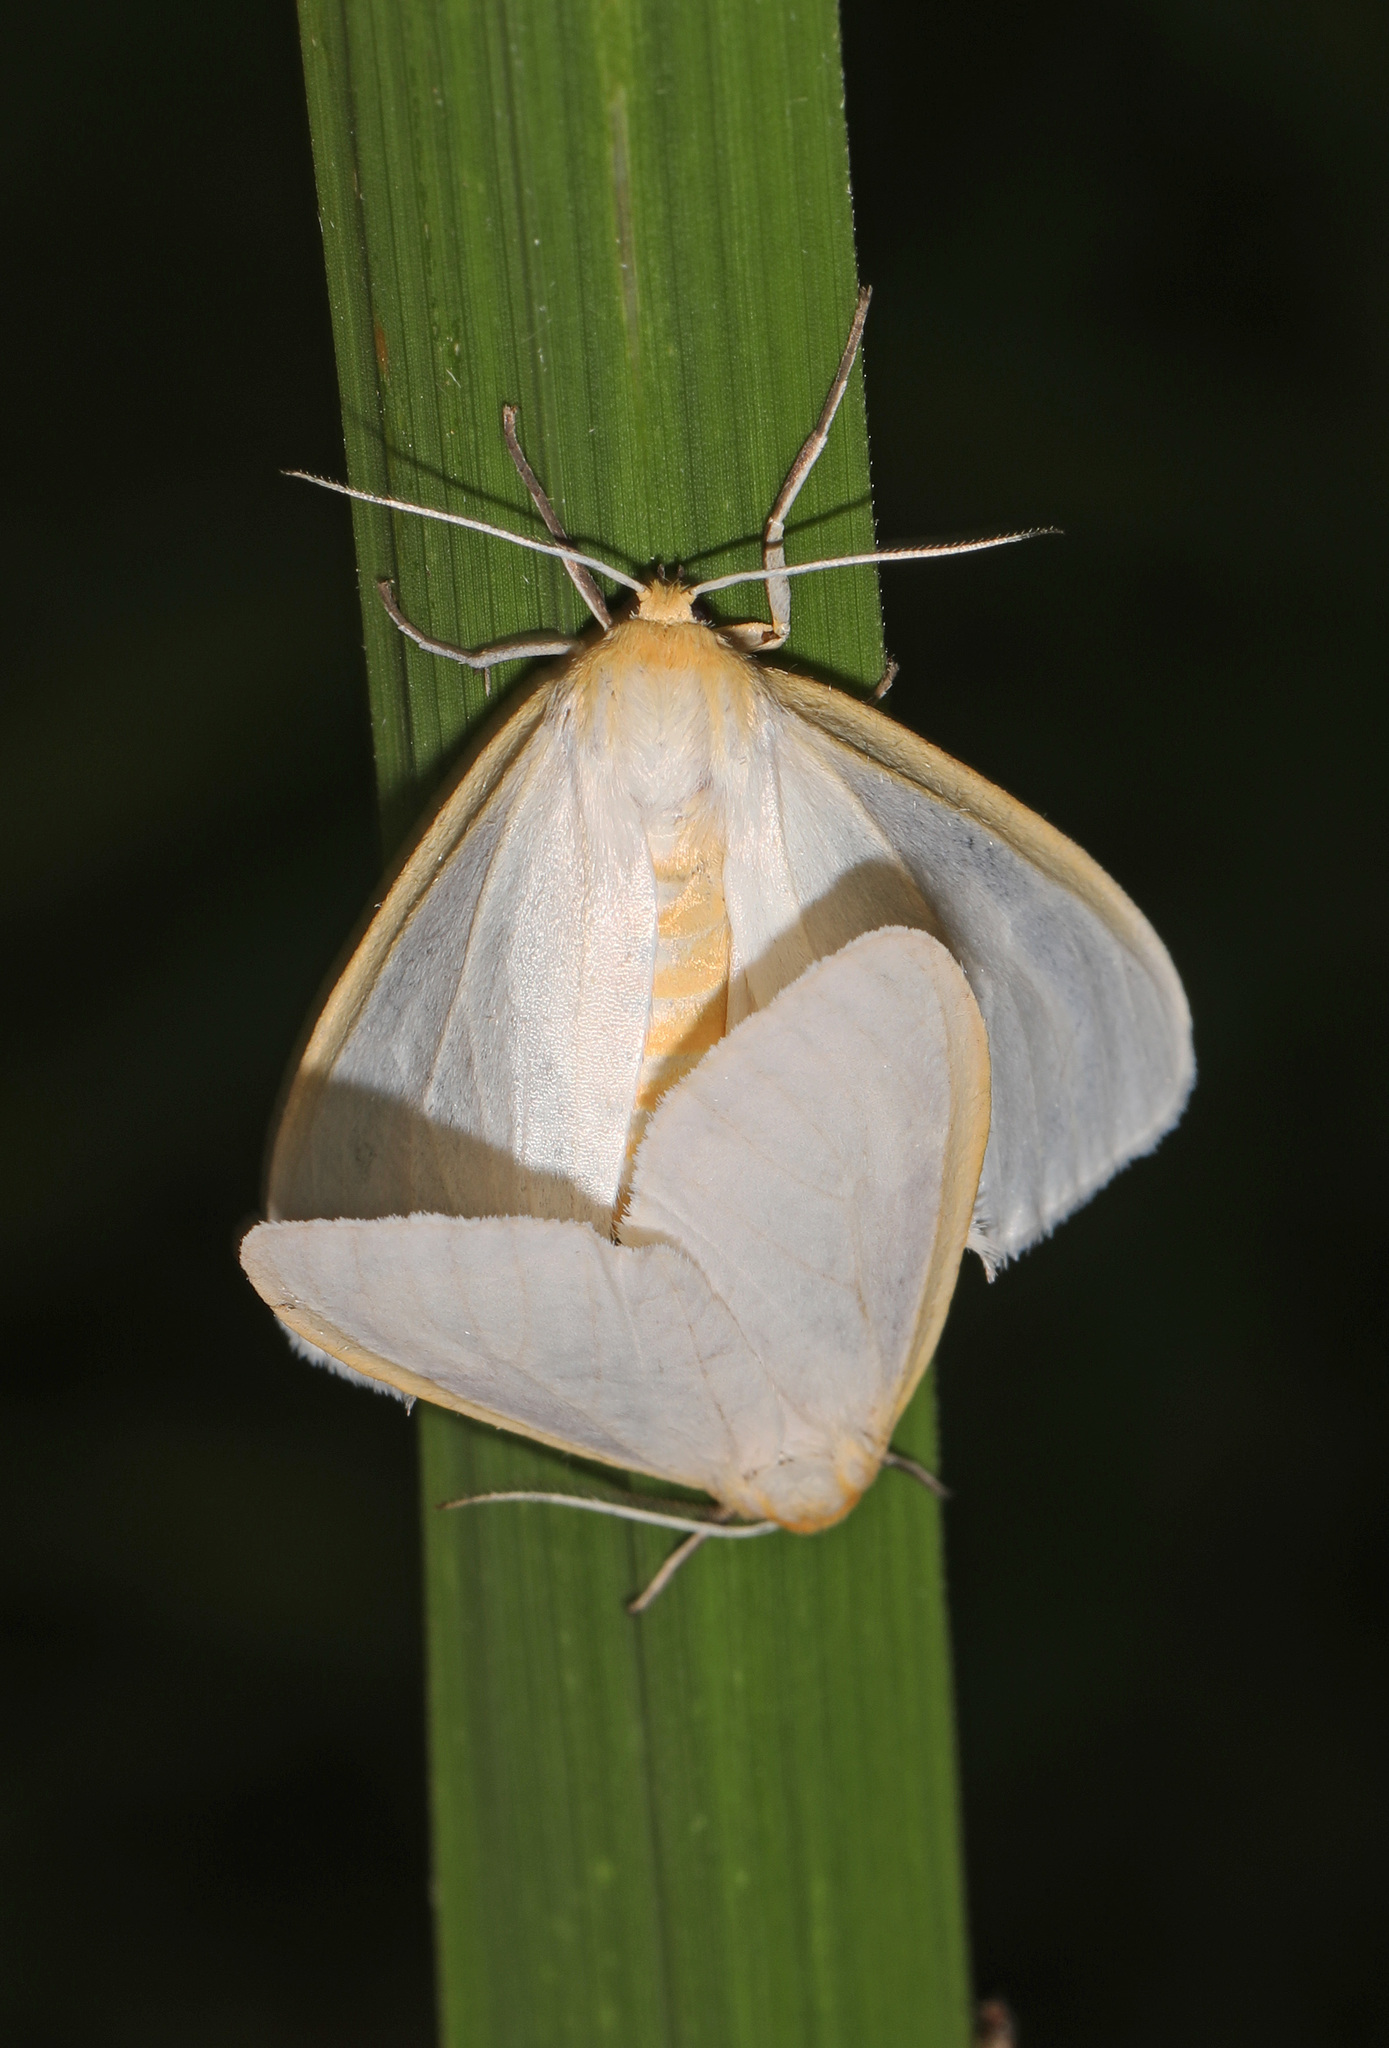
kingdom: Animalia
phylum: Arthropoda
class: Insecta
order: Lepidoptera
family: Erebidae
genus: Cycnia
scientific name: Cycnia tenera
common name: Delicate cycnia moth
